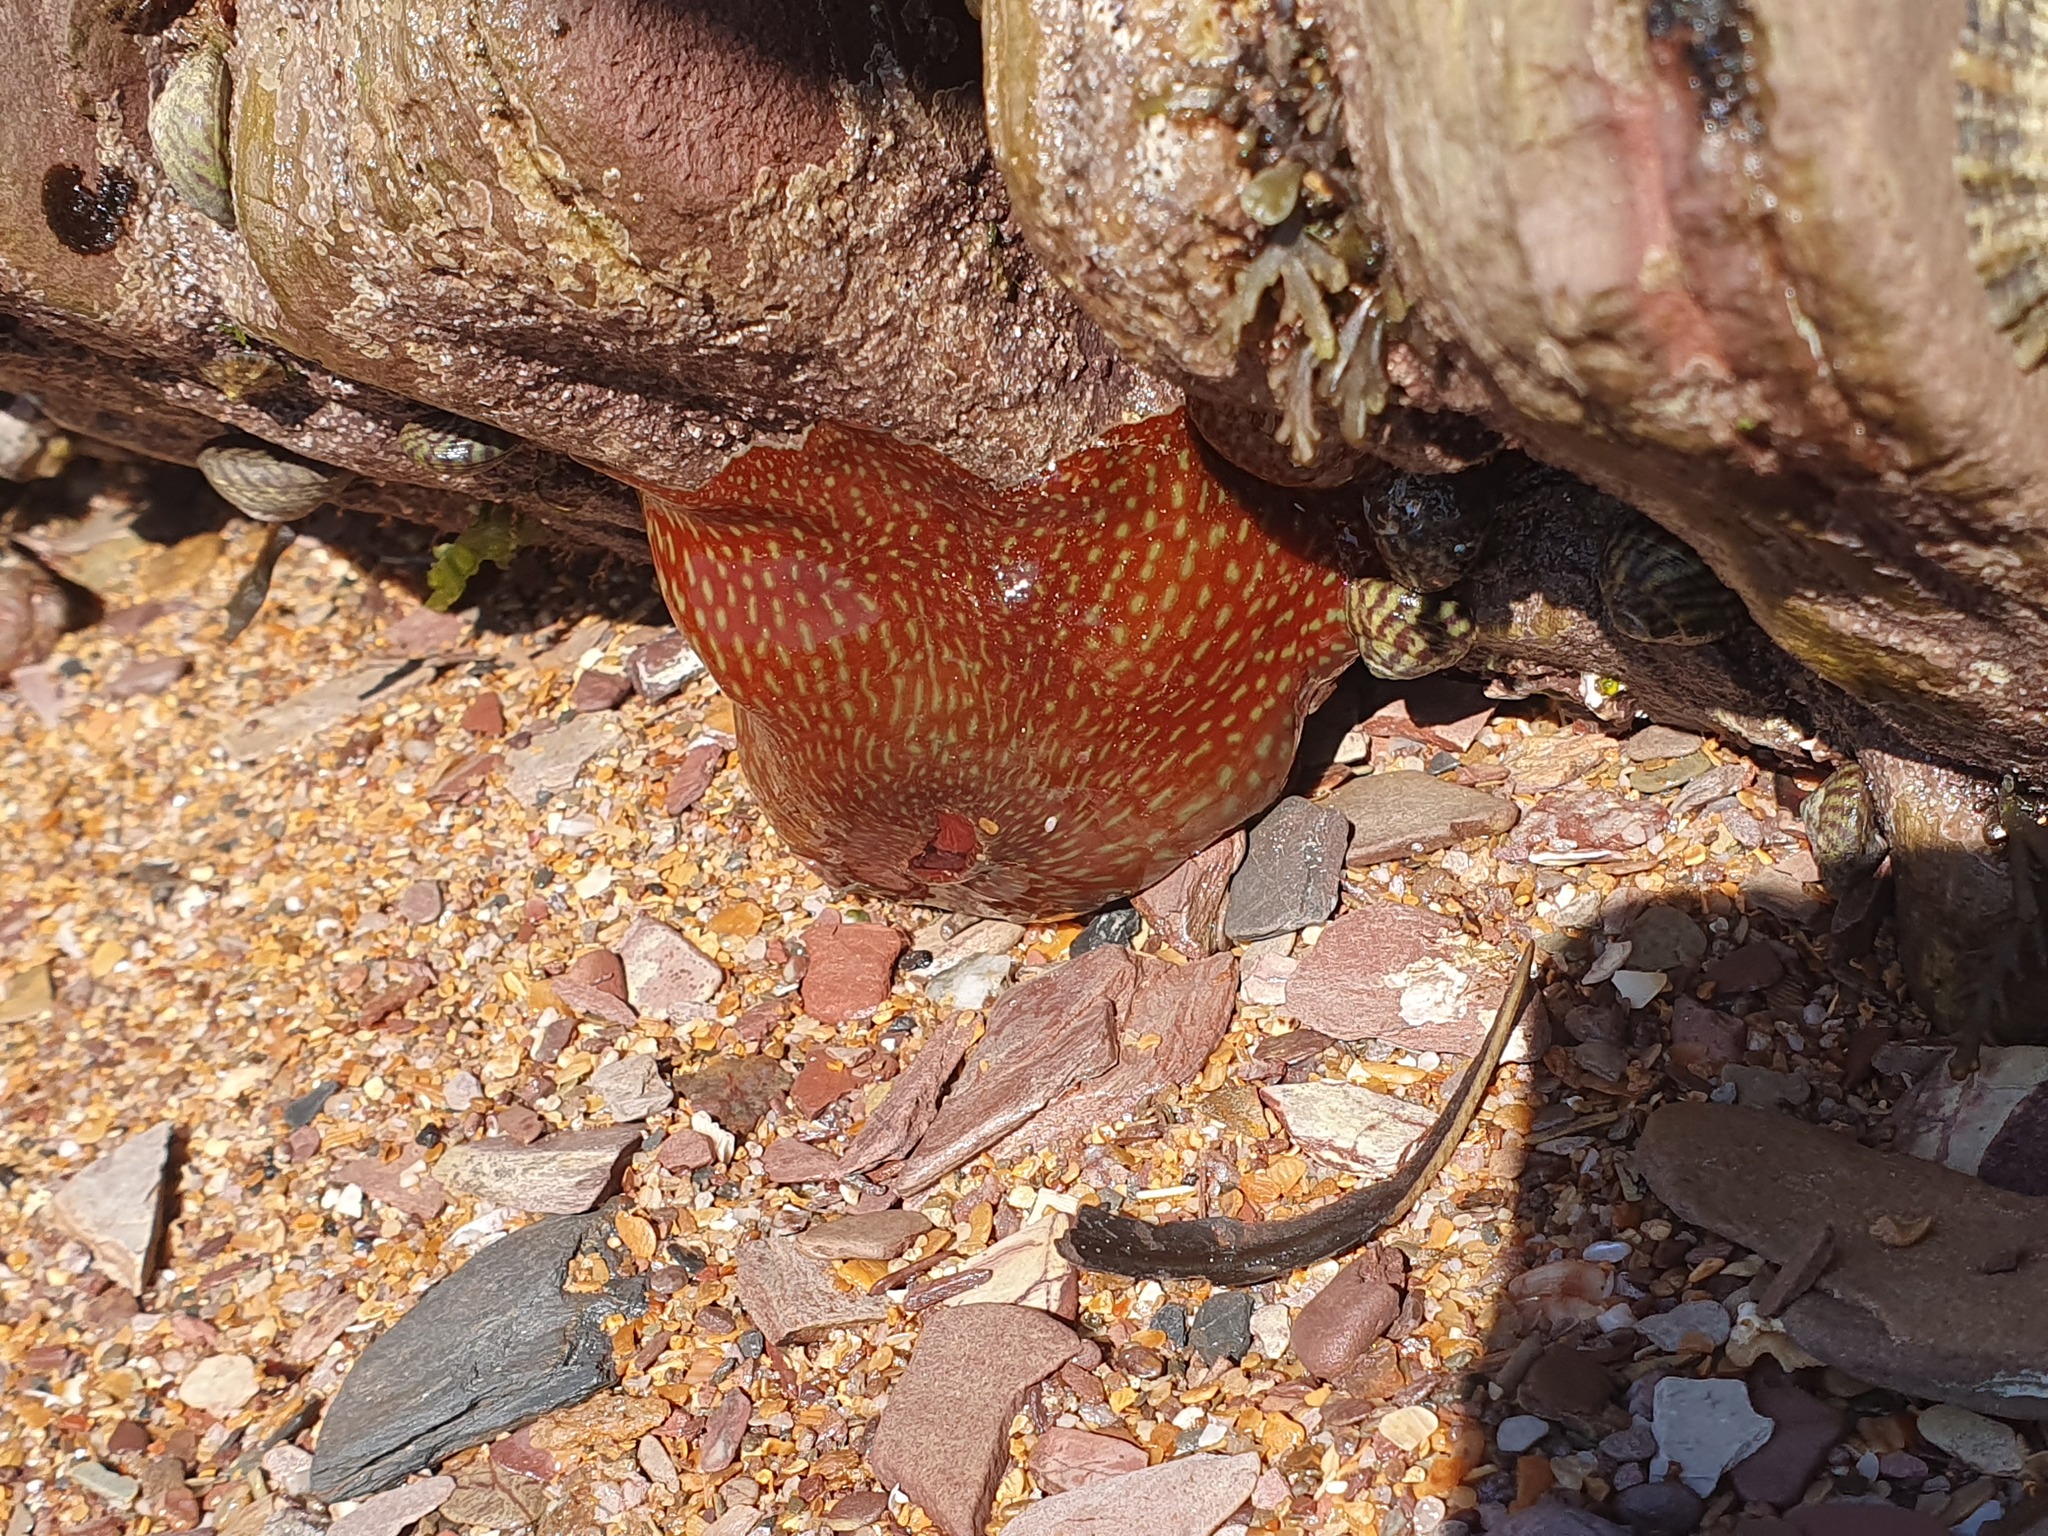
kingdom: Animalia
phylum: Cnidaria
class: Anthozoa
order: Actiniaria
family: Actiniidae
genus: Actinia
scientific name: Actinia fragacea
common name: Strawberry anemone
